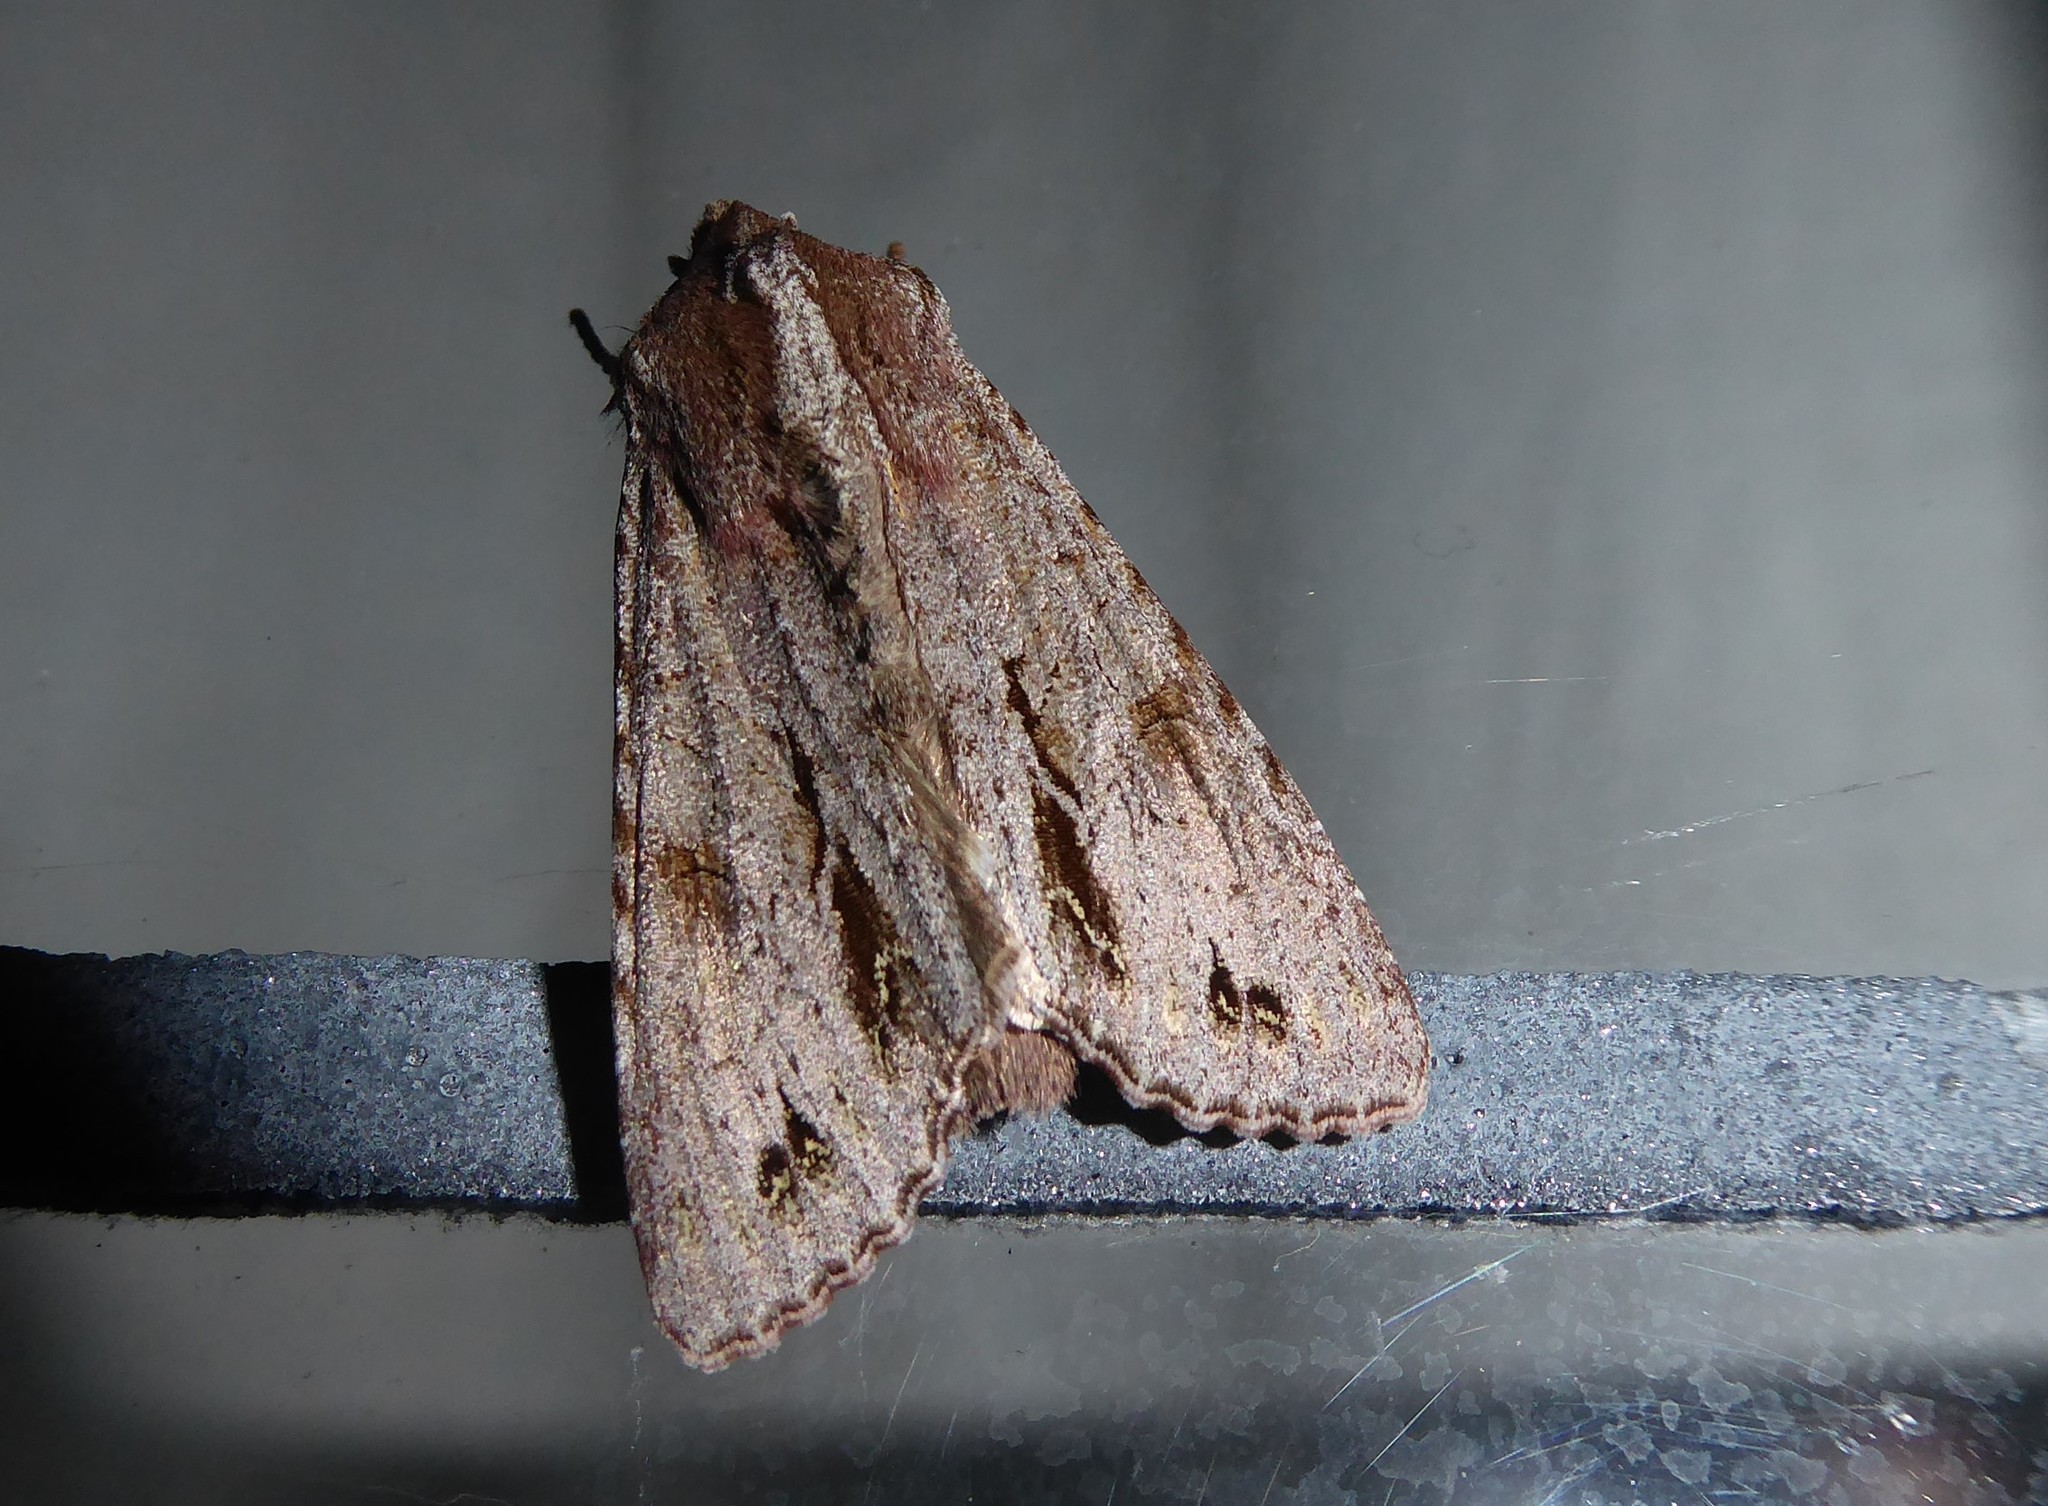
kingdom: Animalia
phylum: Arthropoda
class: Insecta
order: Lepidoptera
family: Noctuidae
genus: Ichneutica
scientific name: Ichneutica
